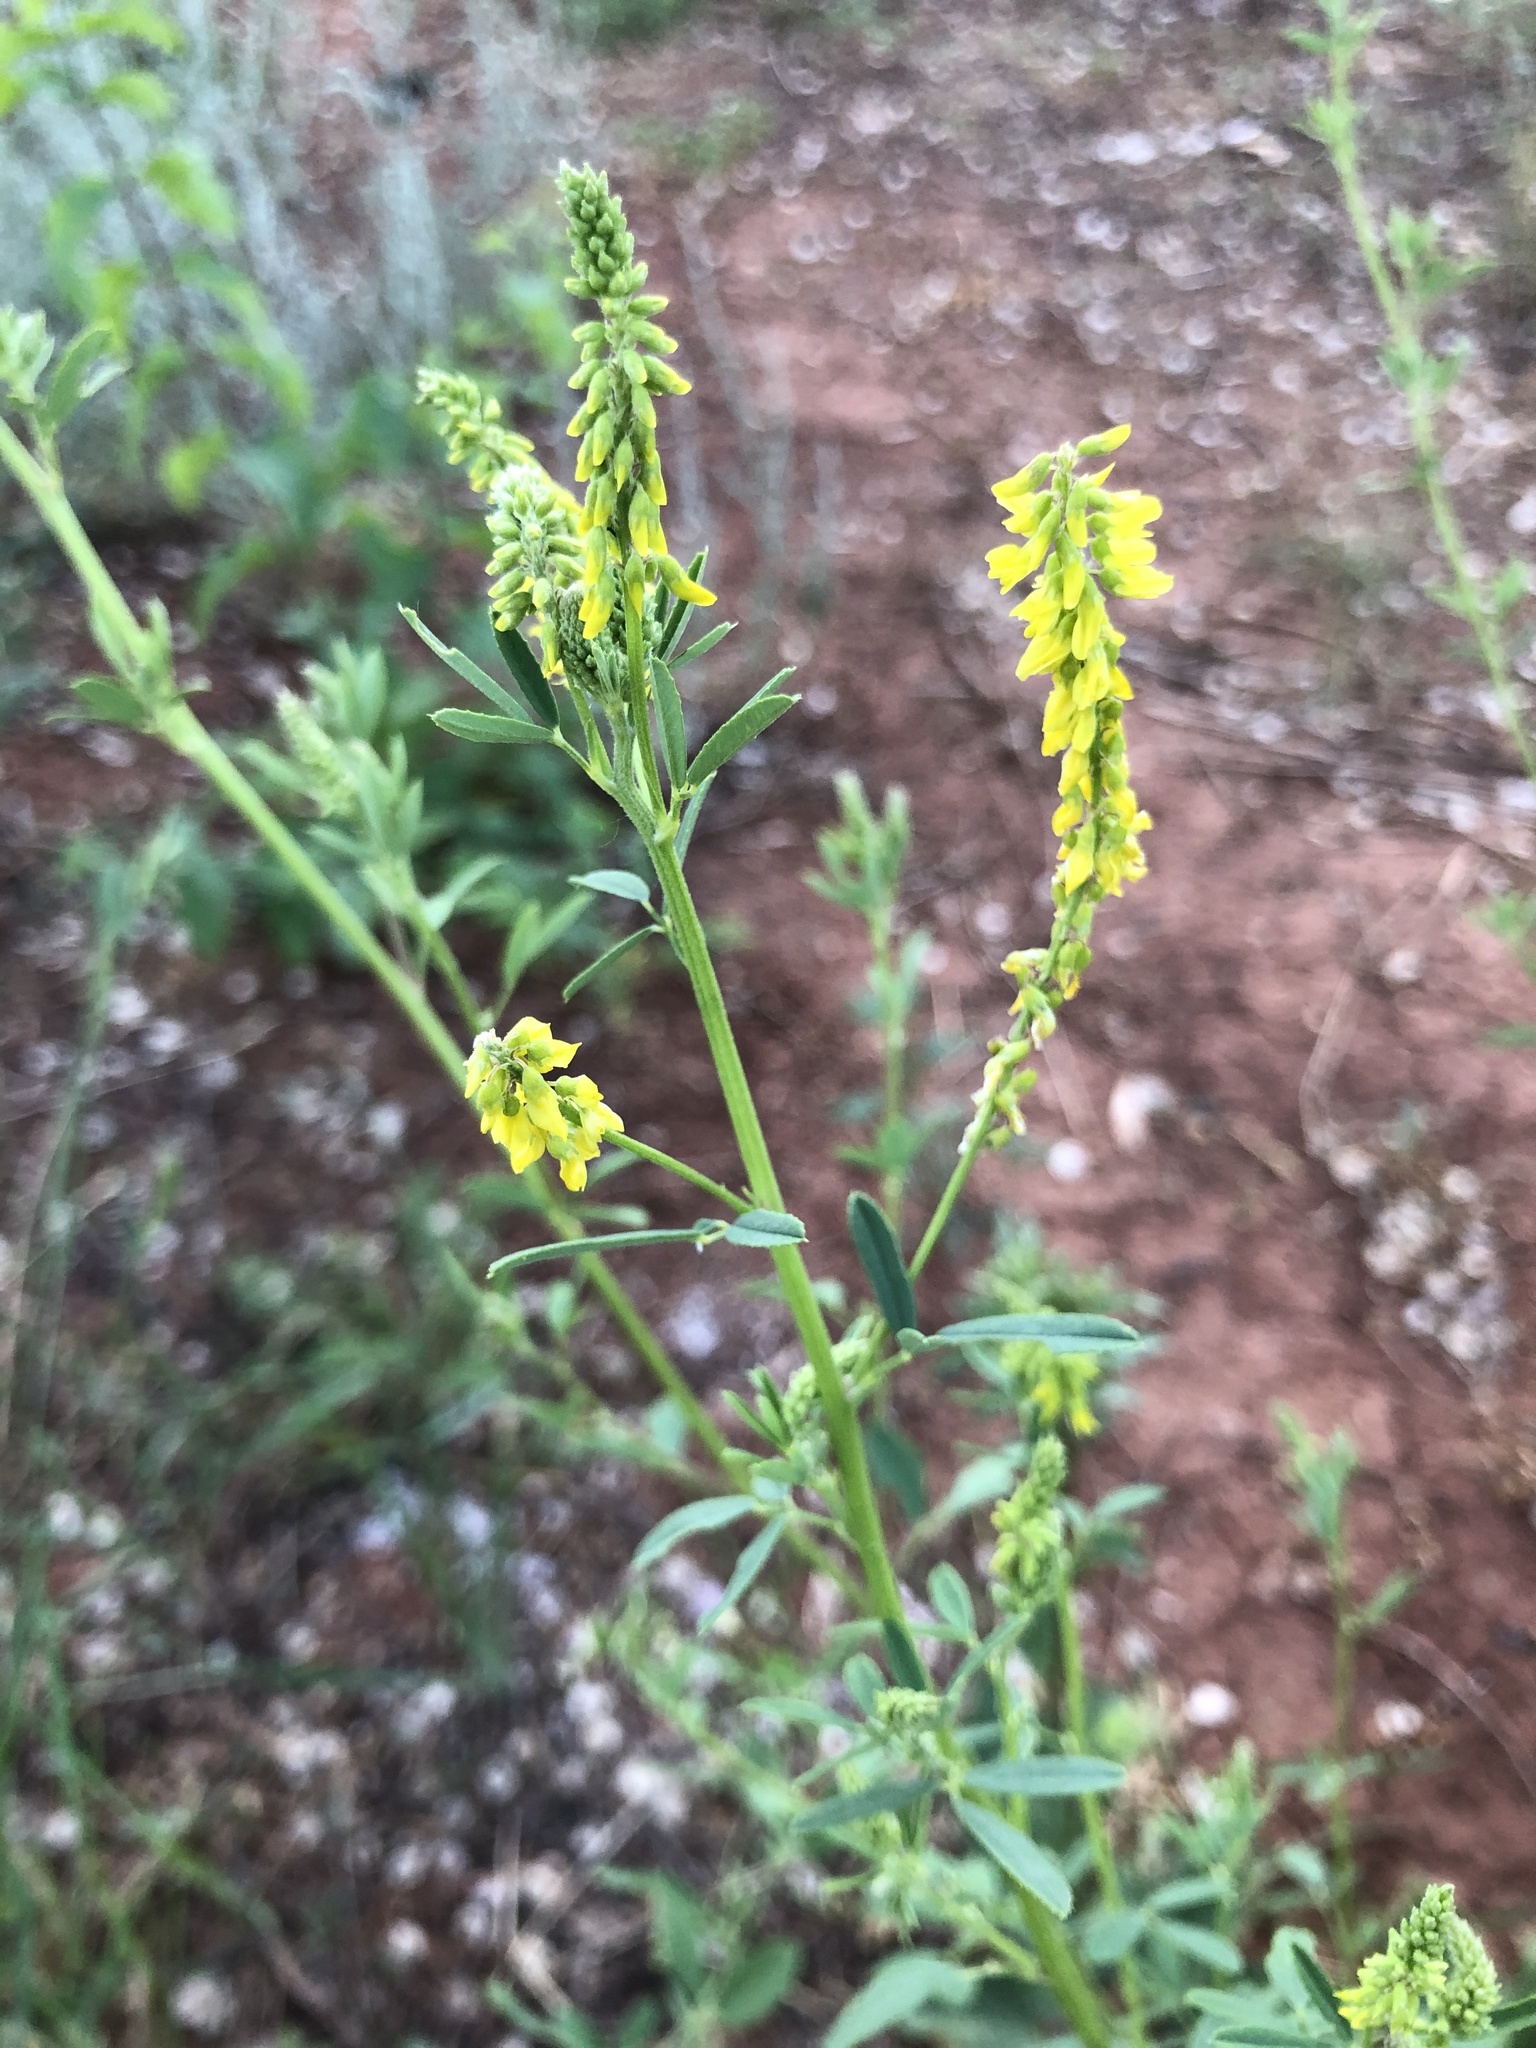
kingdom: Plantae
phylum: Tracheophyta
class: Magnoliopsida
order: Fabales
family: Fabaceae
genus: Melilotus
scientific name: Melilotus officinalis
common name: Sweetclover
